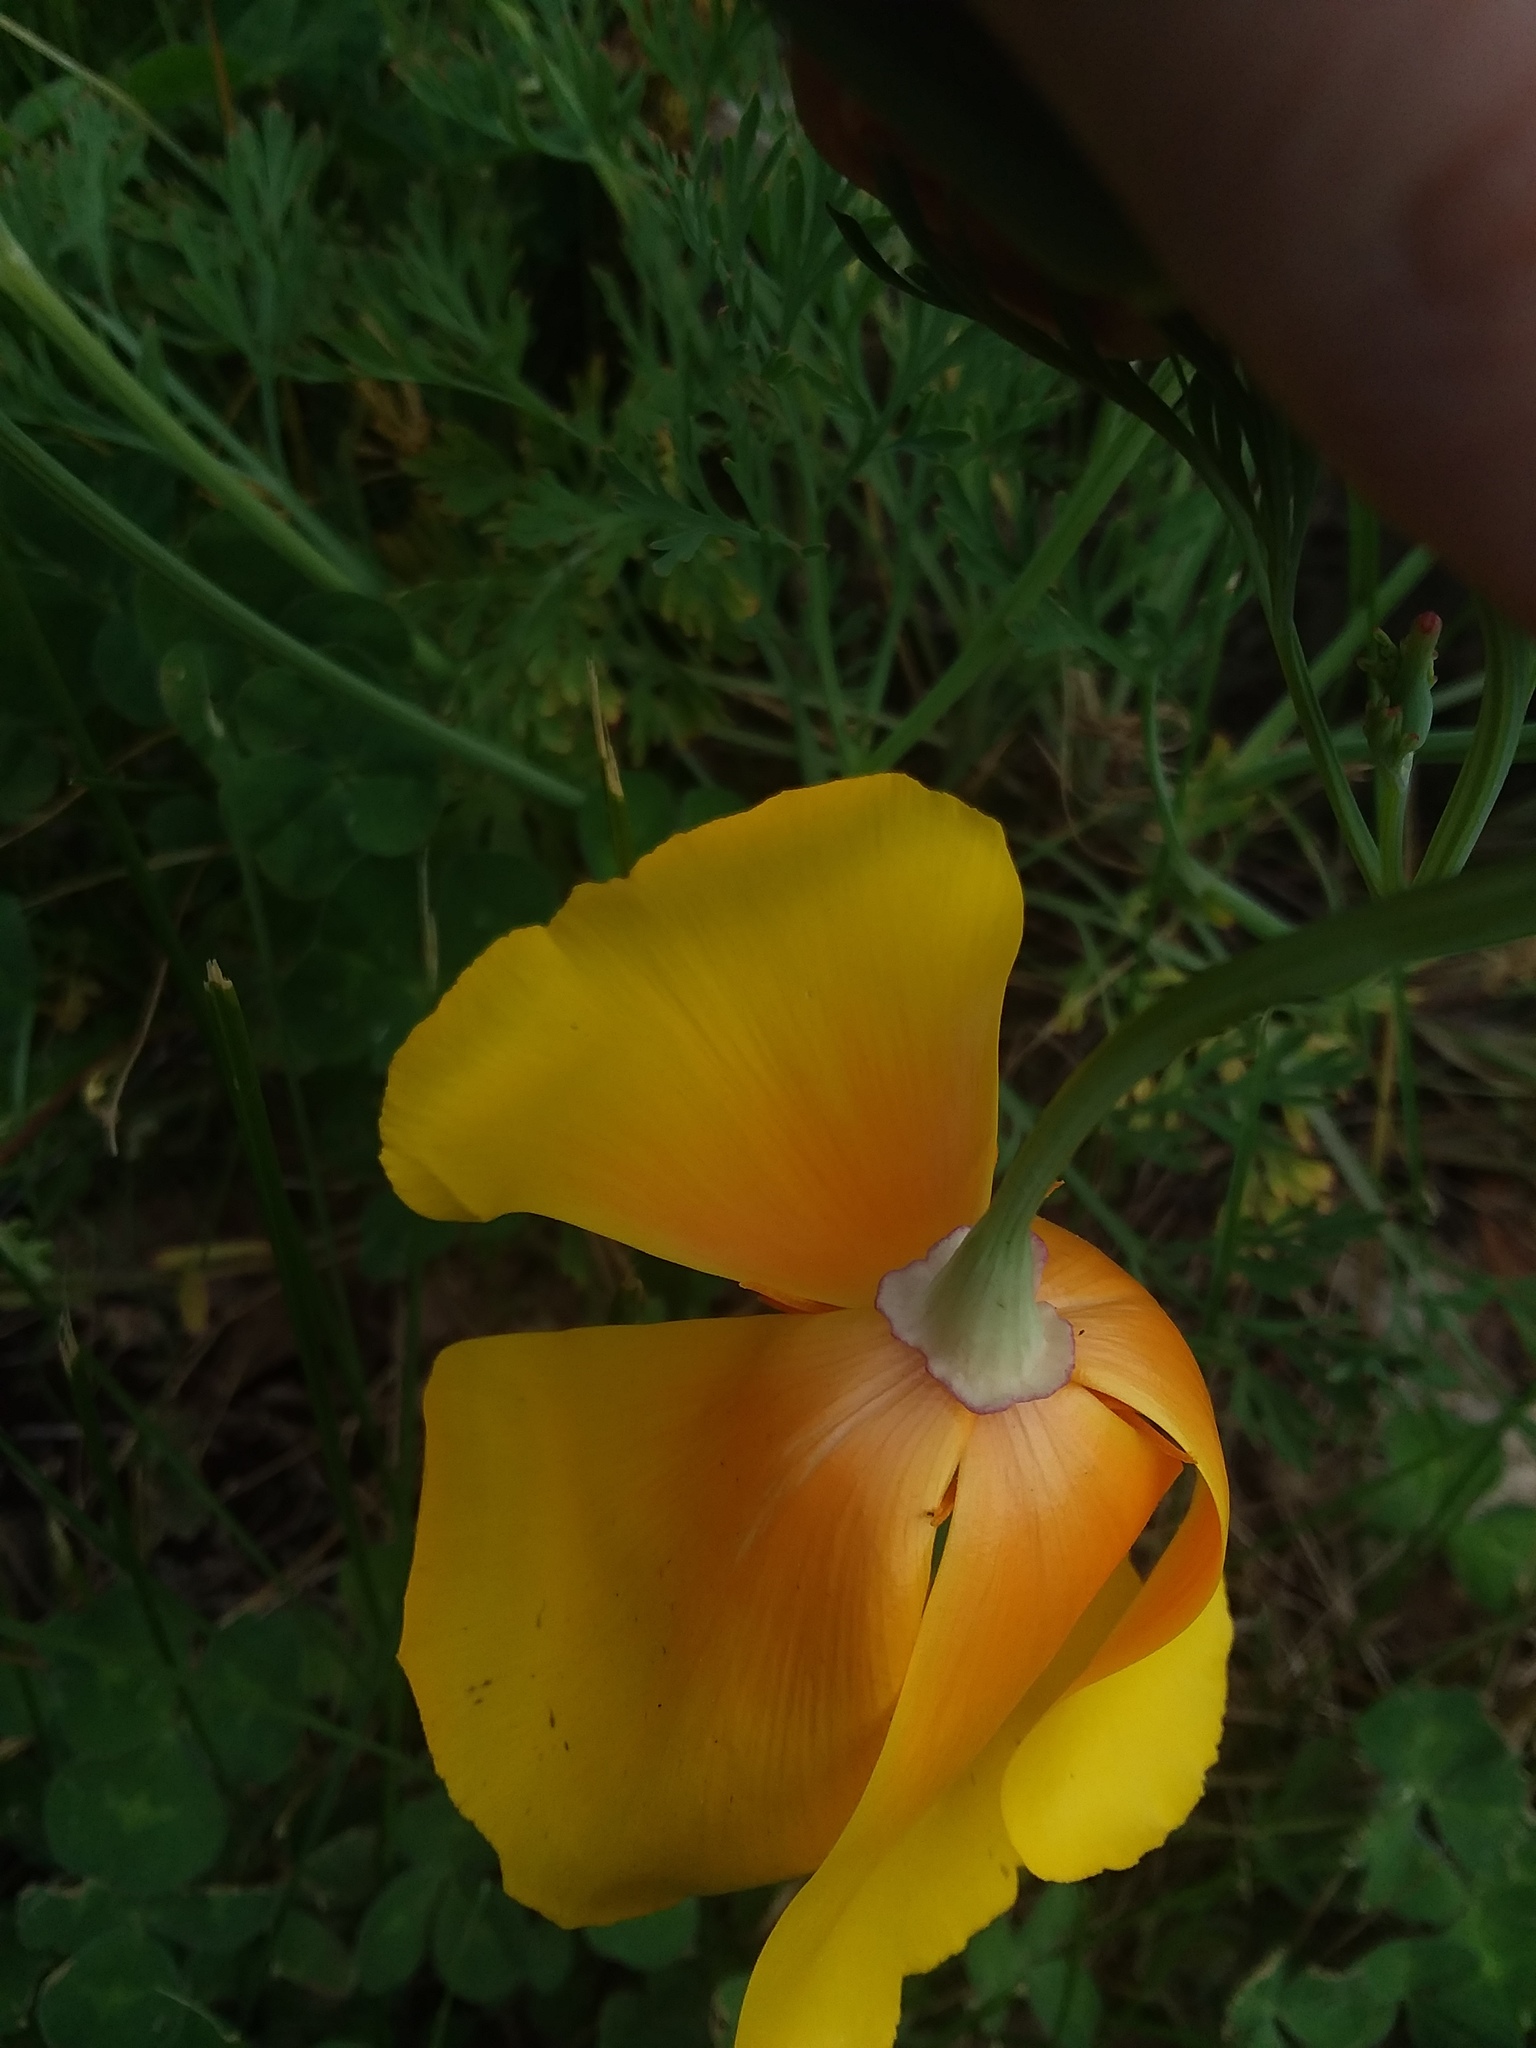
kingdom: Plantae
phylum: Tracheophyta
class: Magnoliopsida
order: Ranunculales
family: Papaveraceae
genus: Eschscholzia
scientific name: Eschscholzia californica
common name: California poppy
